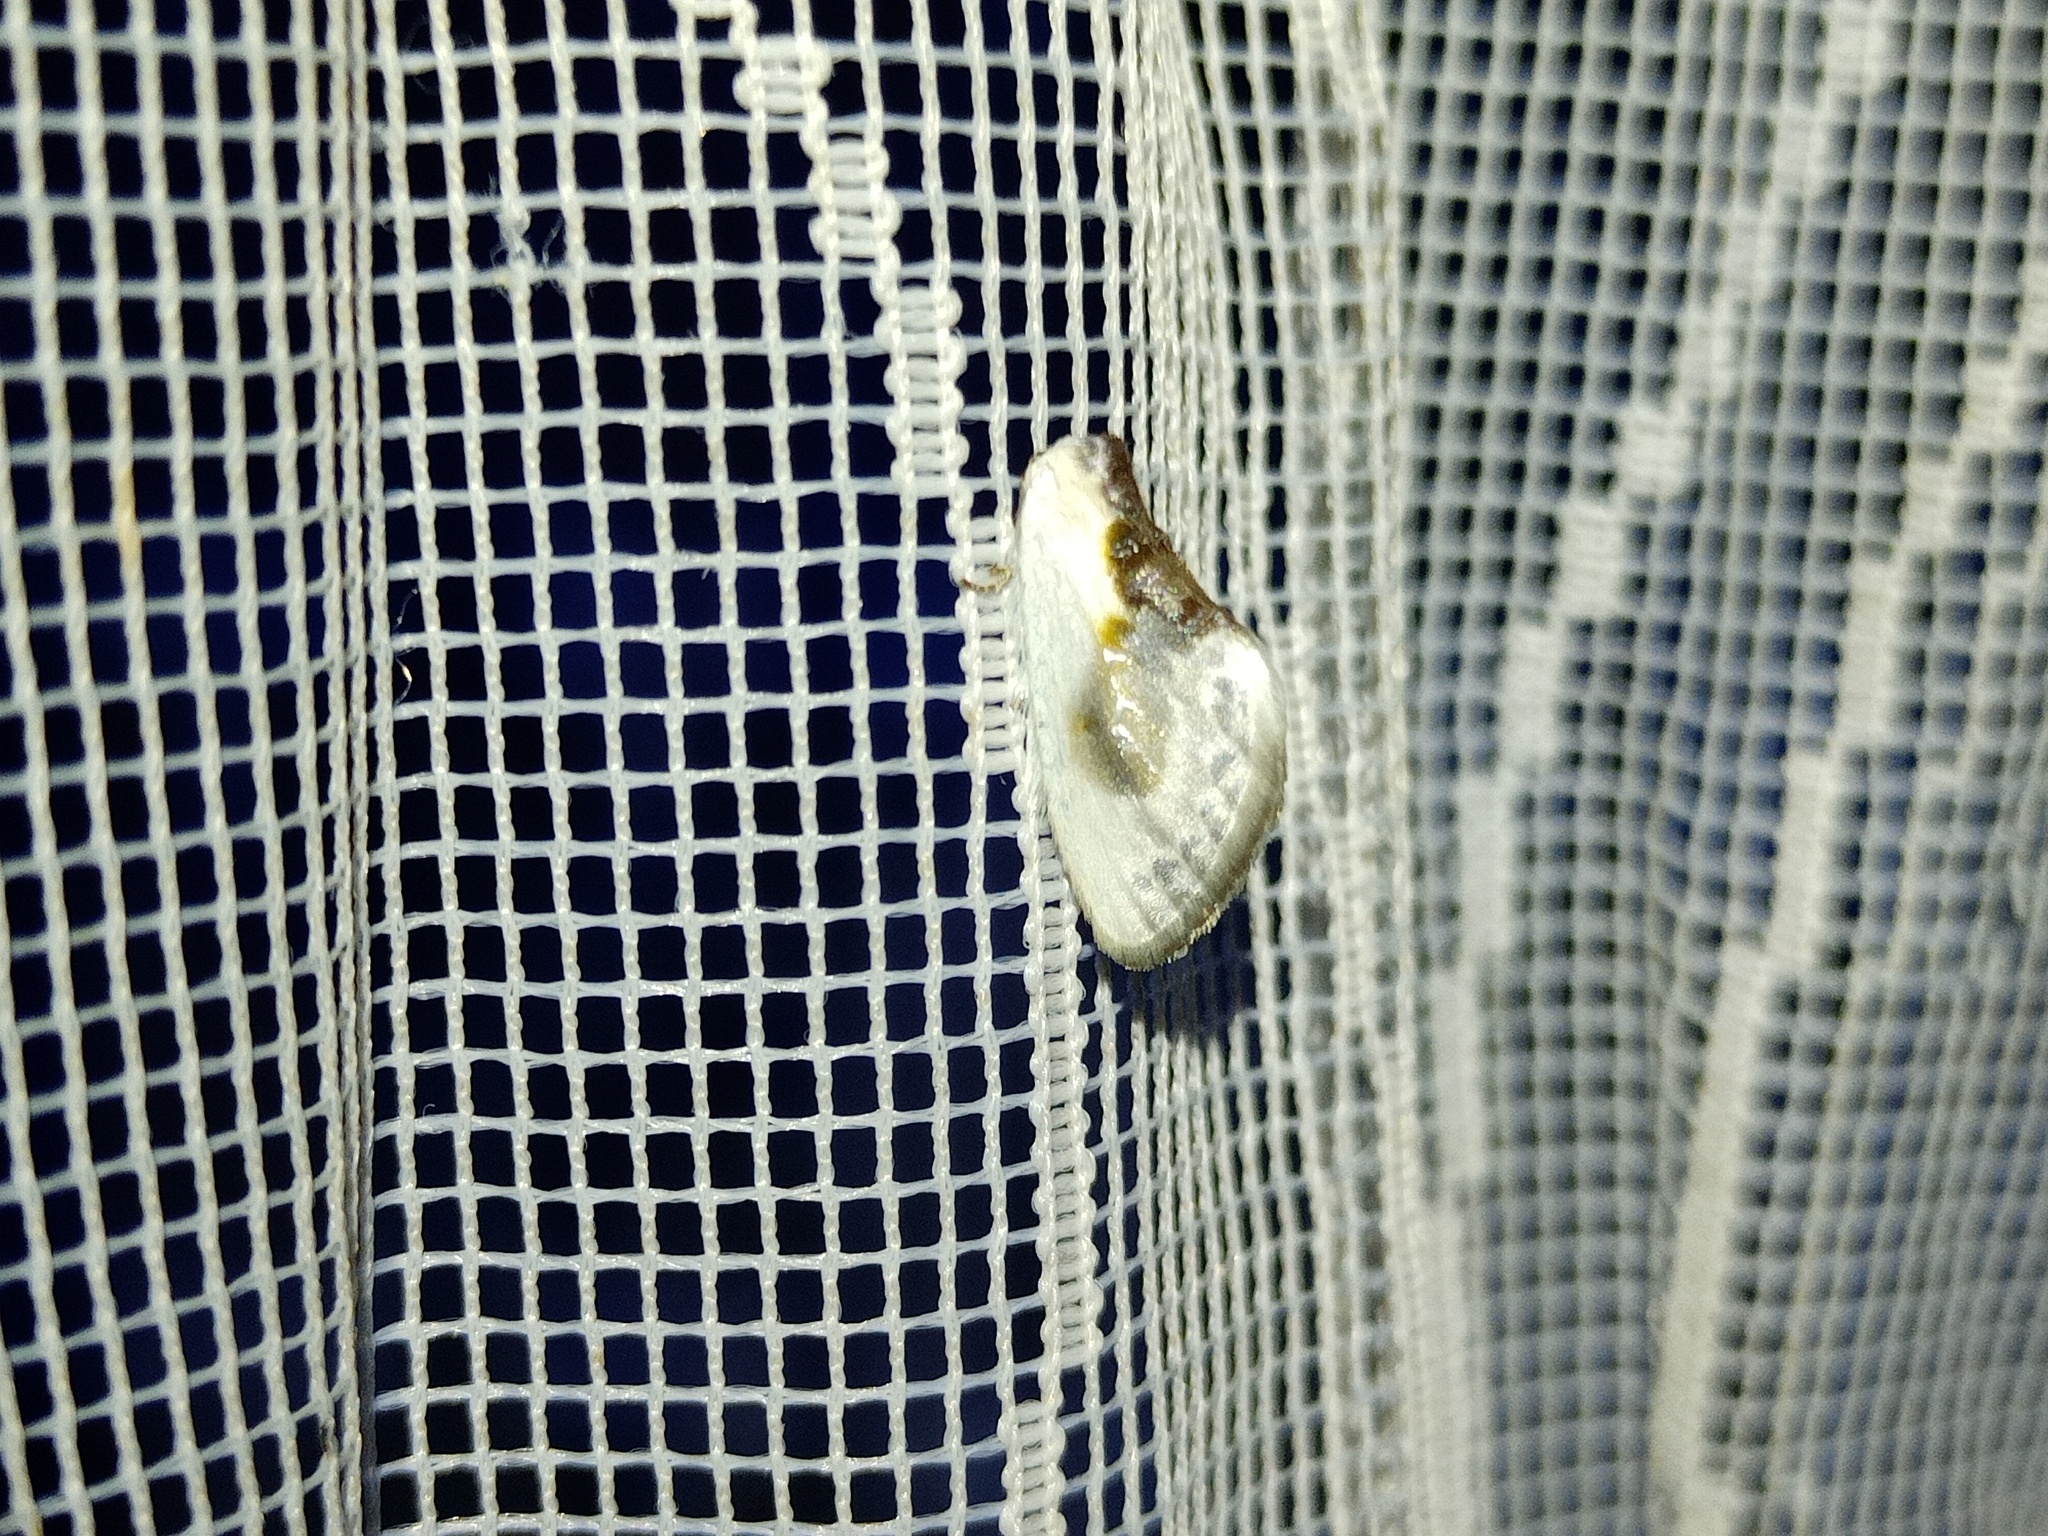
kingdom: Animalia
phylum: Arthropoda
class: Insecta
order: Lepidoptera
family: Drepanidae
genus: Cilix
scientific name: Cilix glaucata
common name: Chinese character
